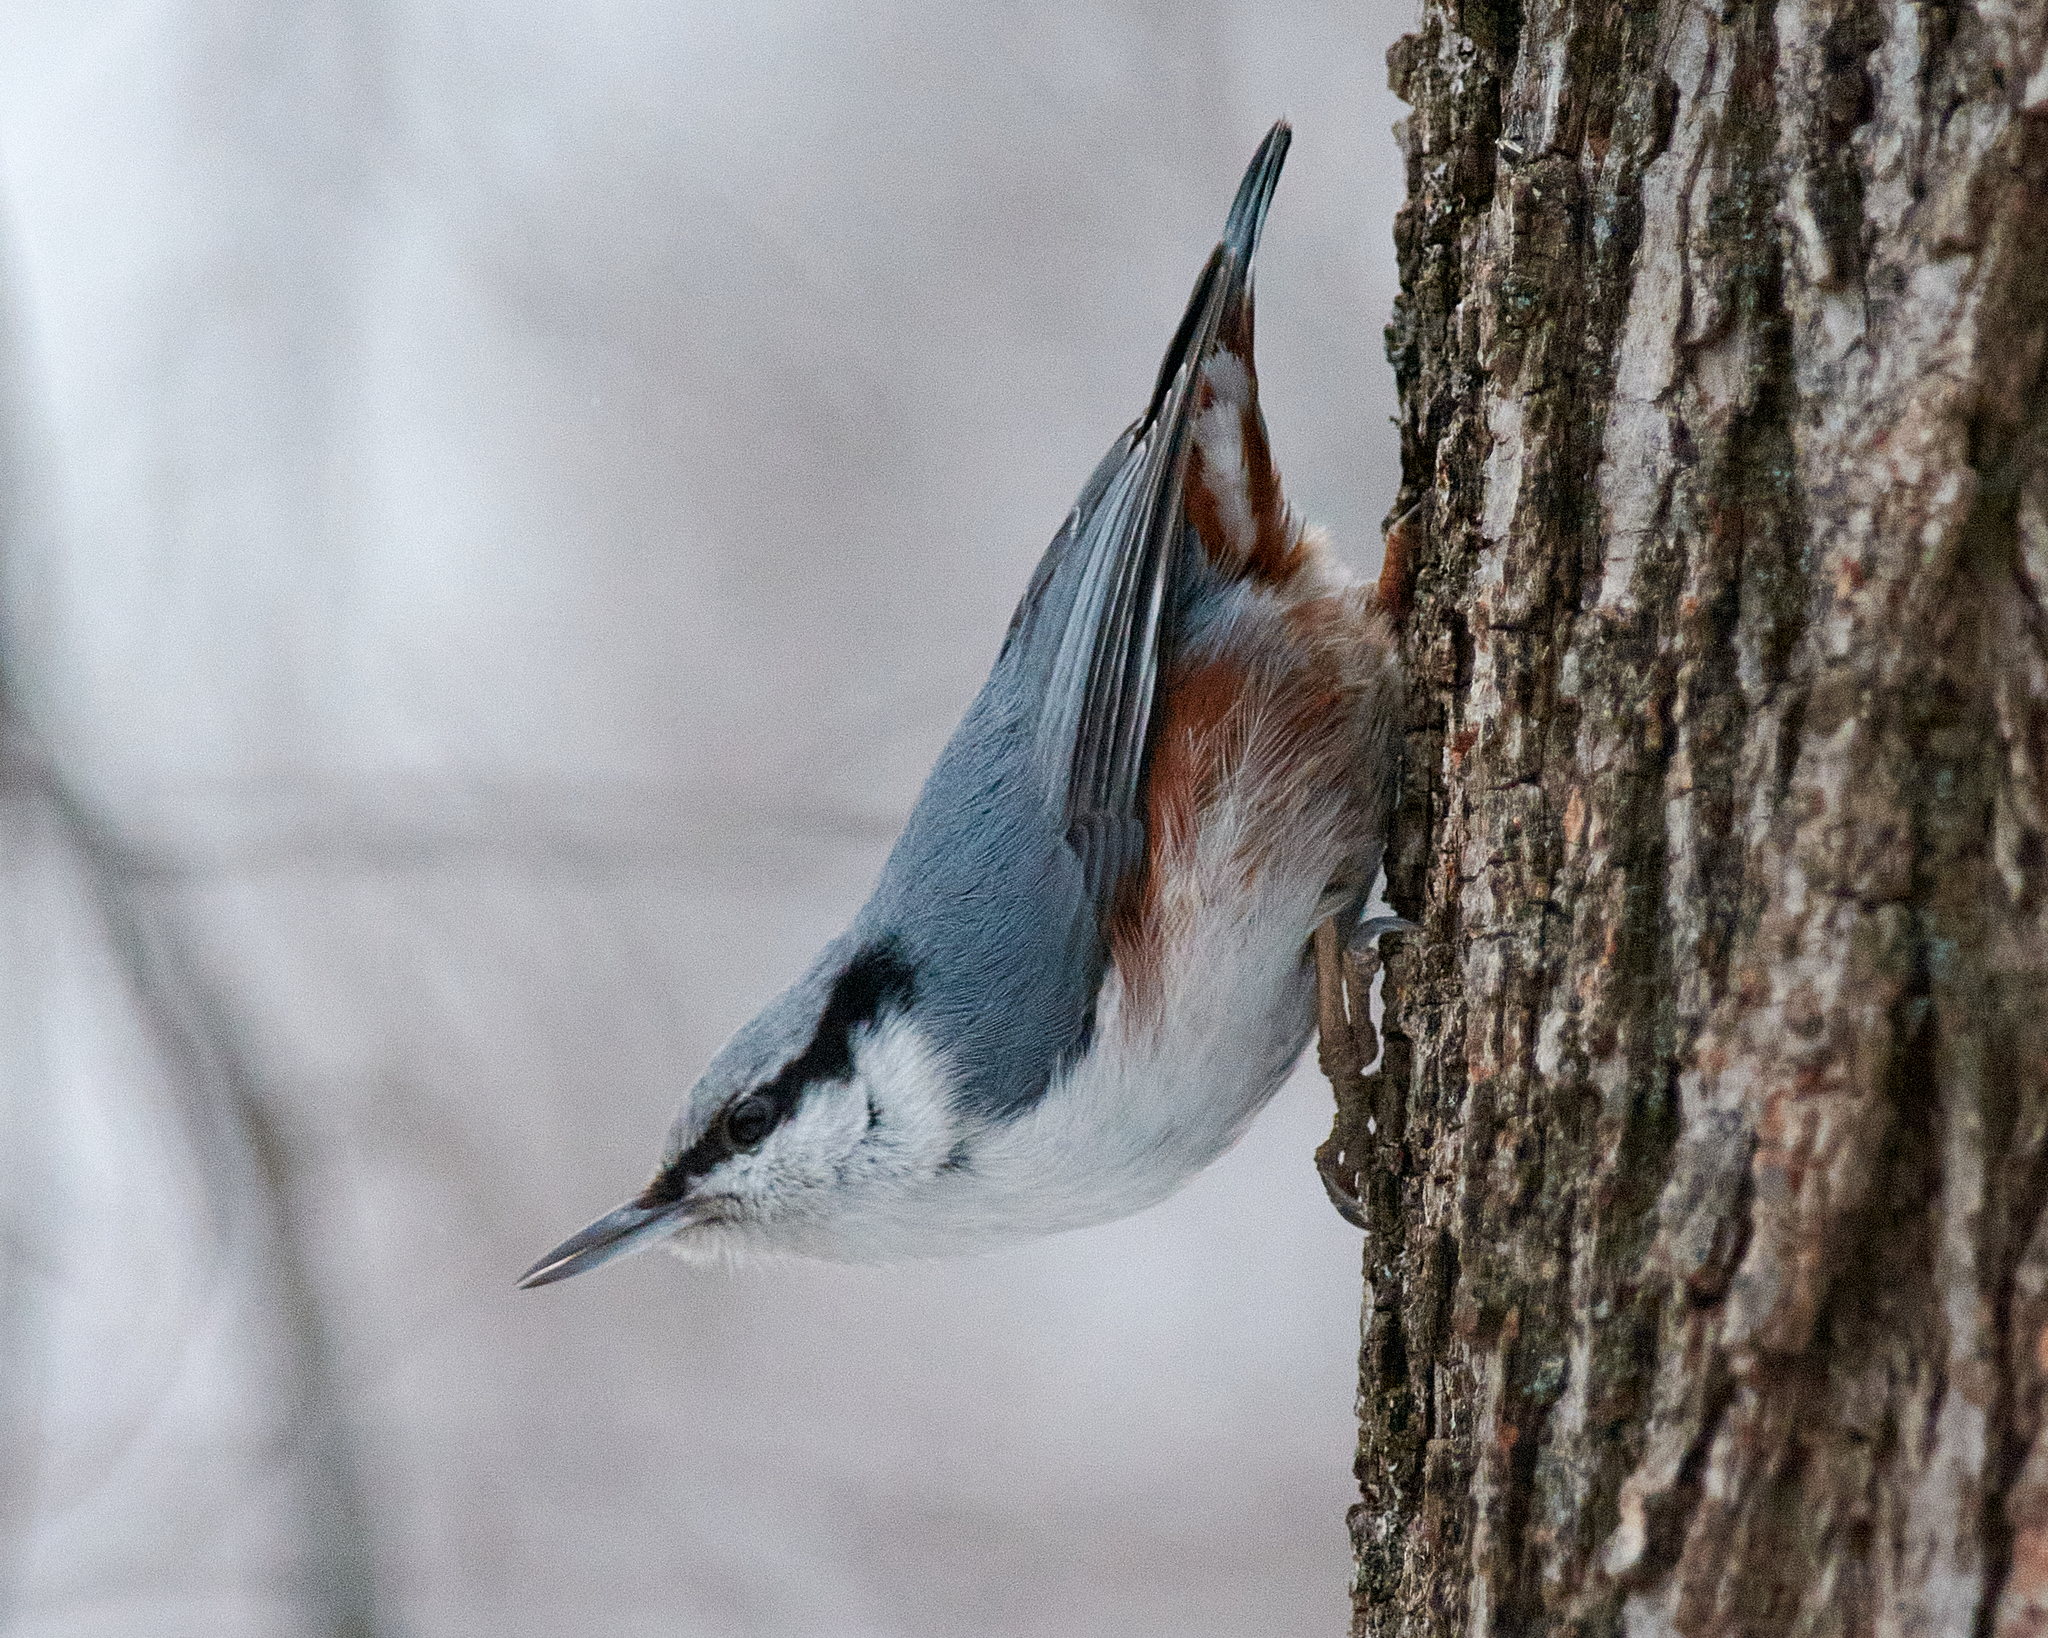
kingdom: Animalia
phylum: Chordata
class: Aves
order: Passeriformes
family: Sittidae
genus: Sitta
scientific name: Sitta europaea
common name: Eurasian nuthatch
